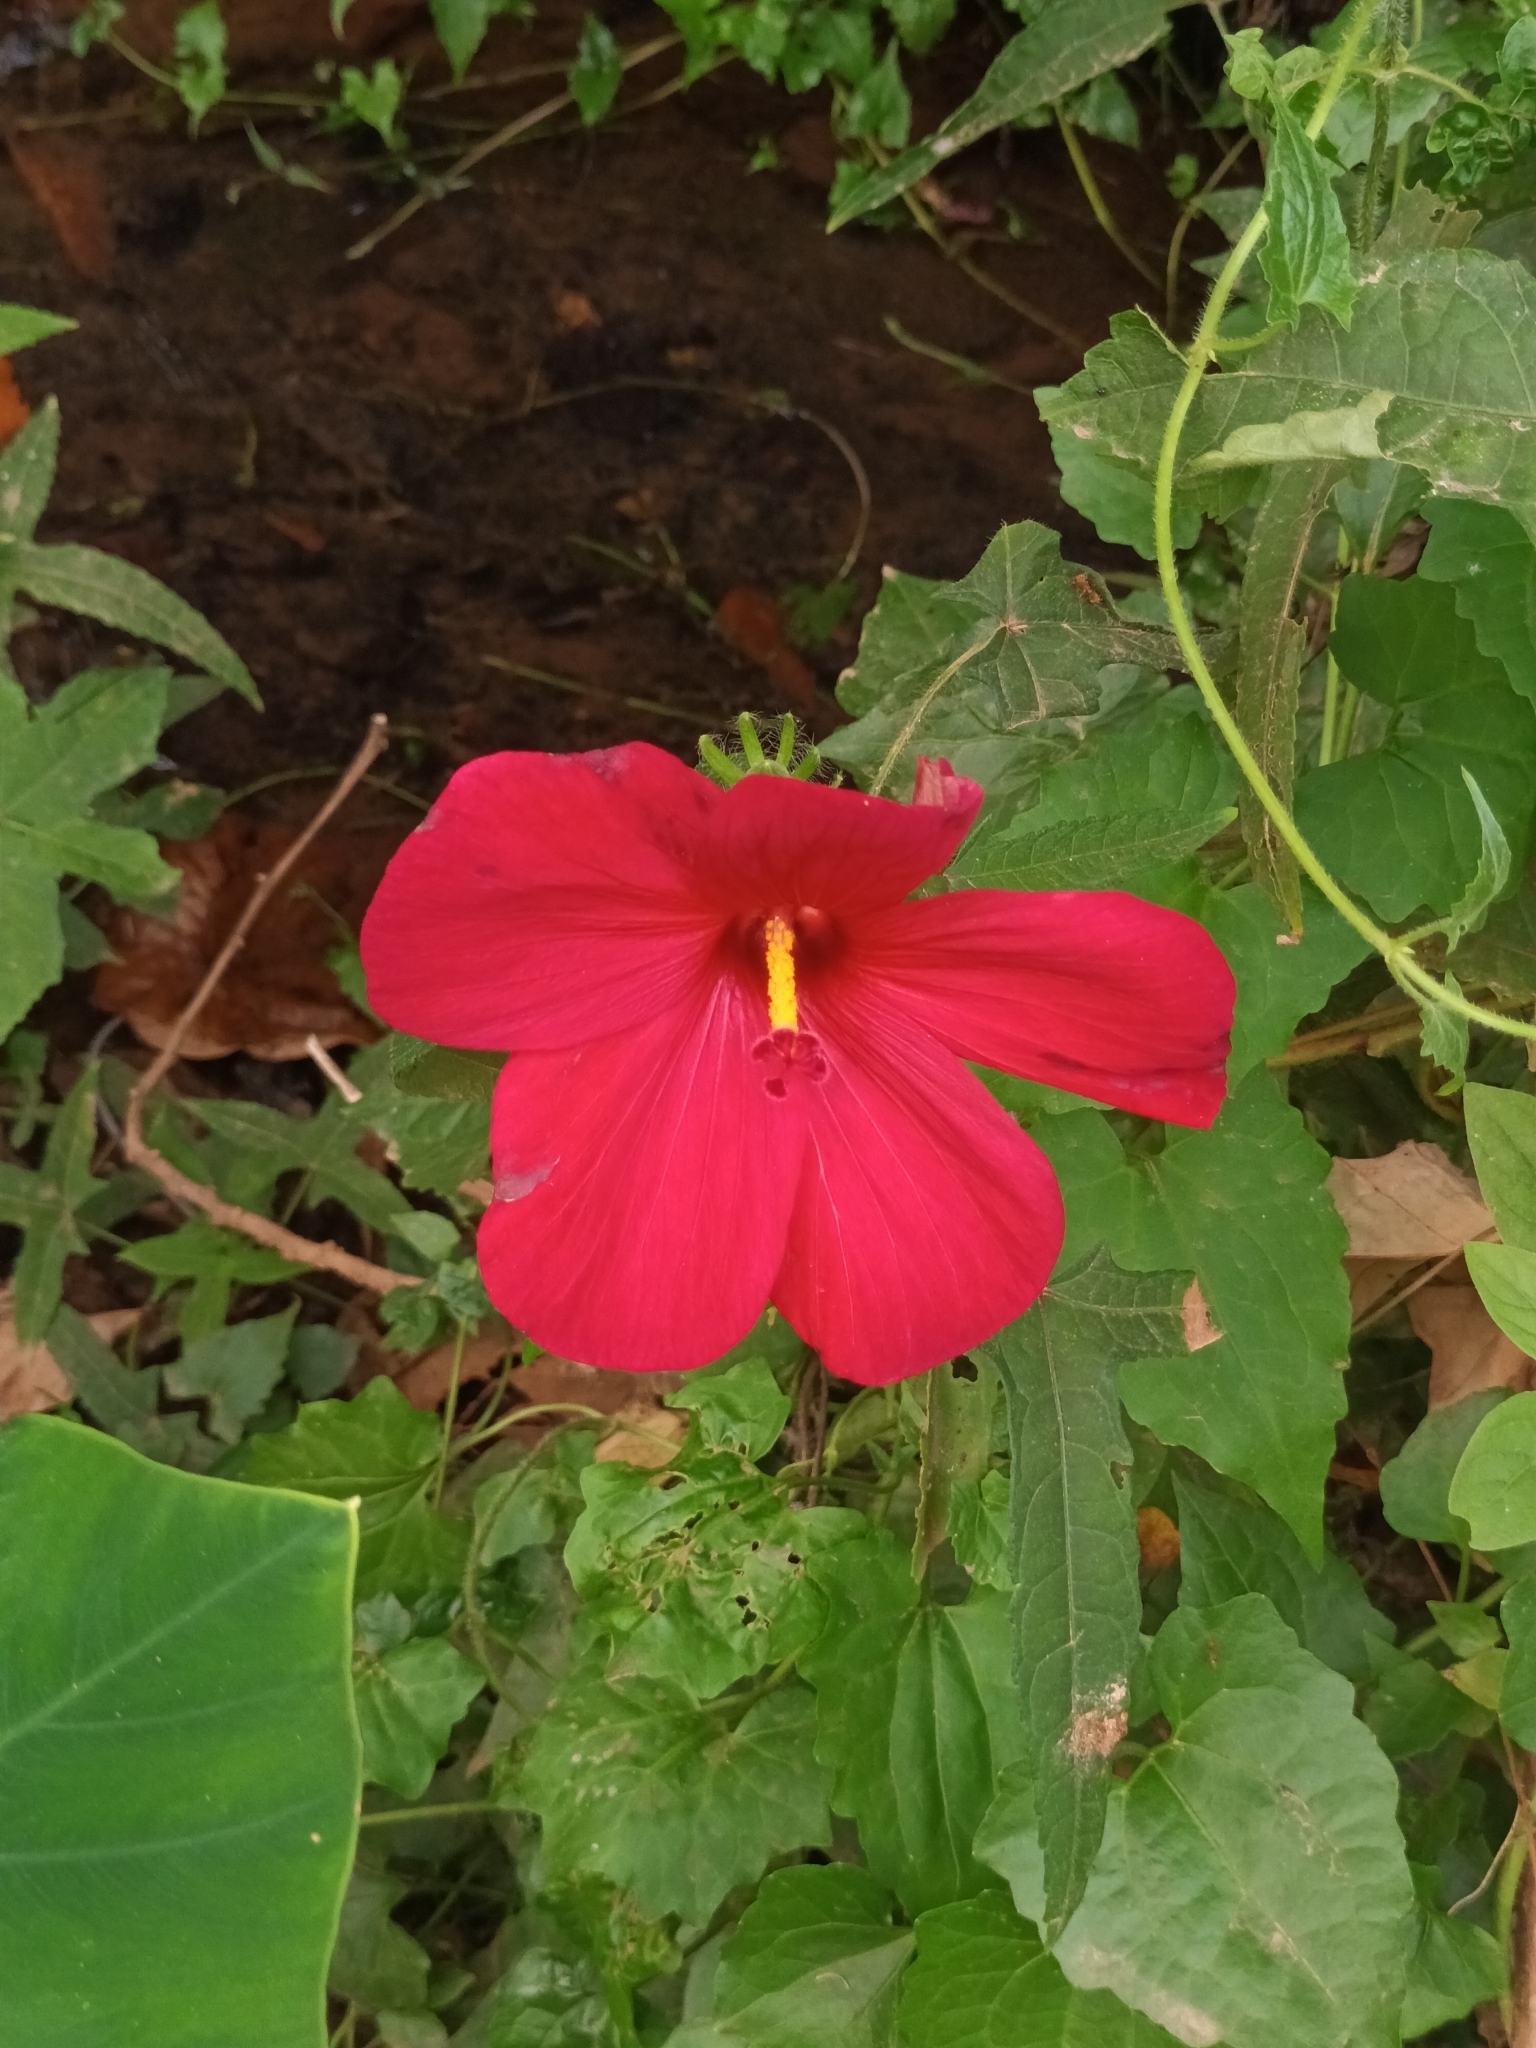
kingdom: Plantae
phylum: Tracheophyta
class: Magnoliopsida
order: Malvales
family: Malvaceae
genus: Abelmoschus
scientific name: Abelmoschus sagittifolius
